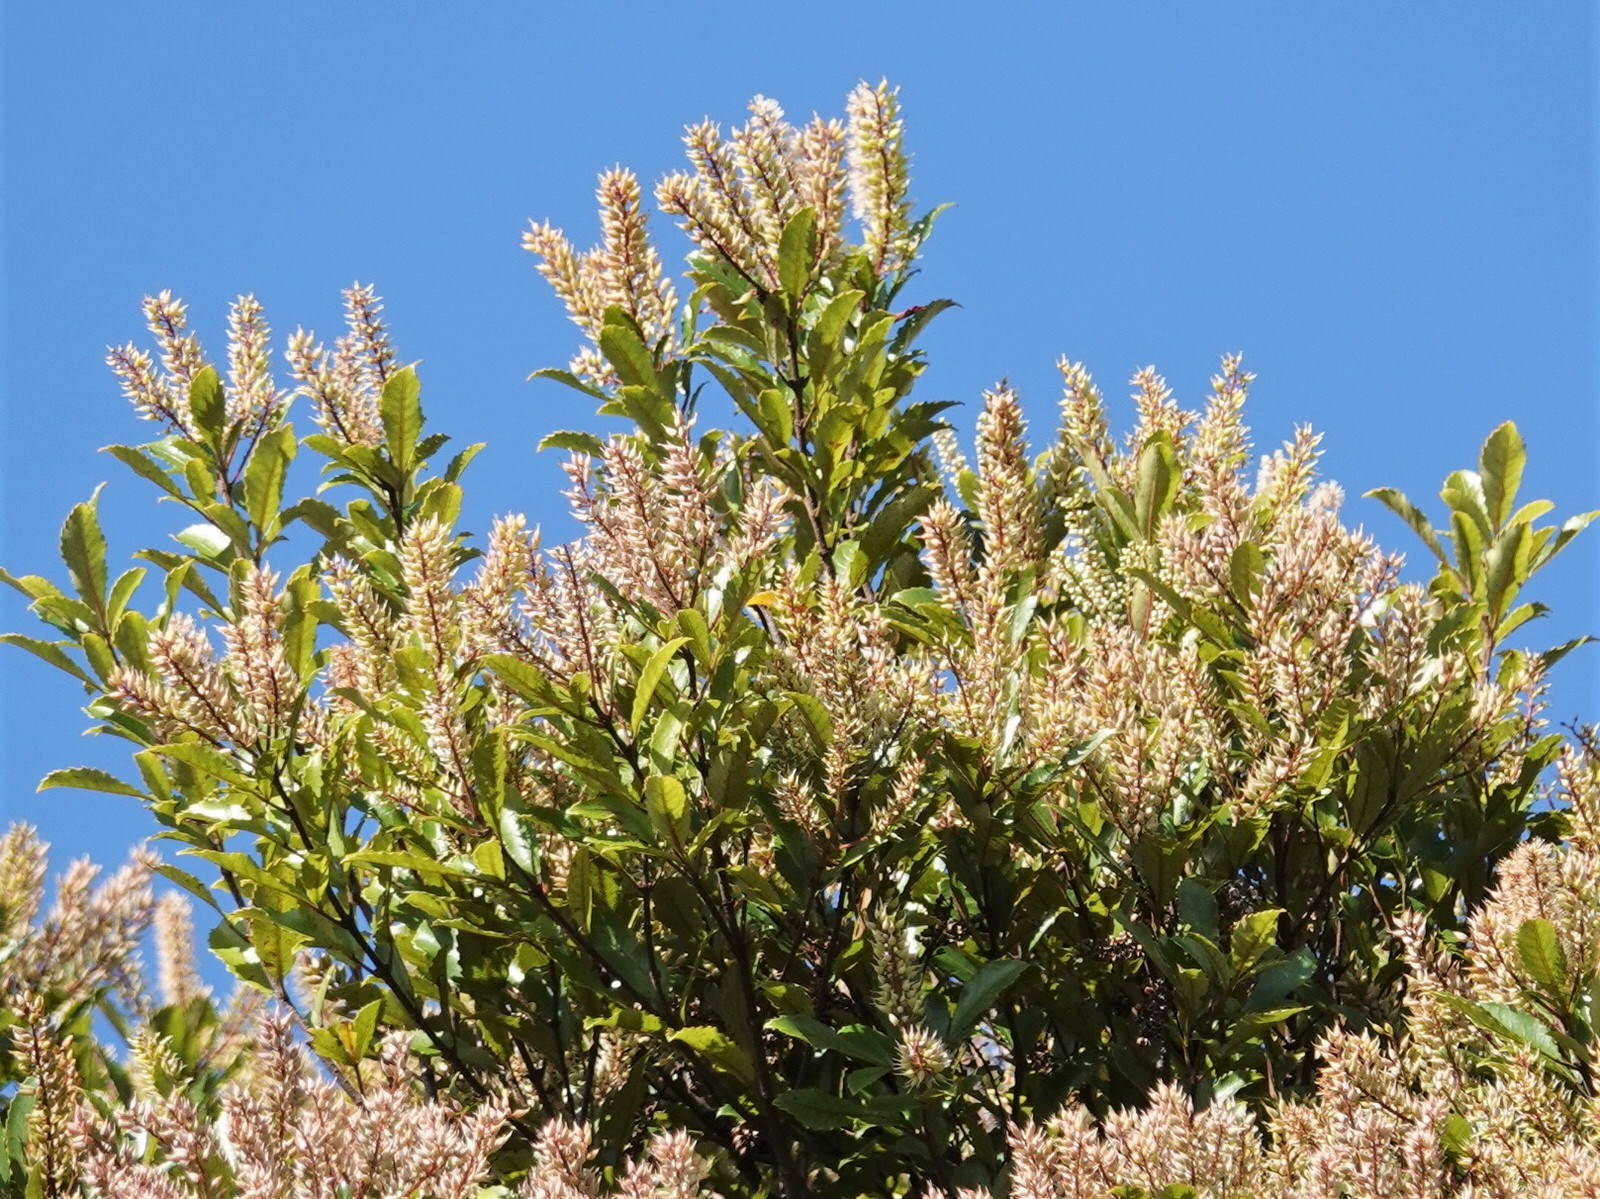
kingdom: Plantae
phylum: Tracheophyta
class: Magnoliopsida
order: Oxalidales
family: Cunoniaceae
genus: Pterophylla
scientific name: Pterophylla racemosa
